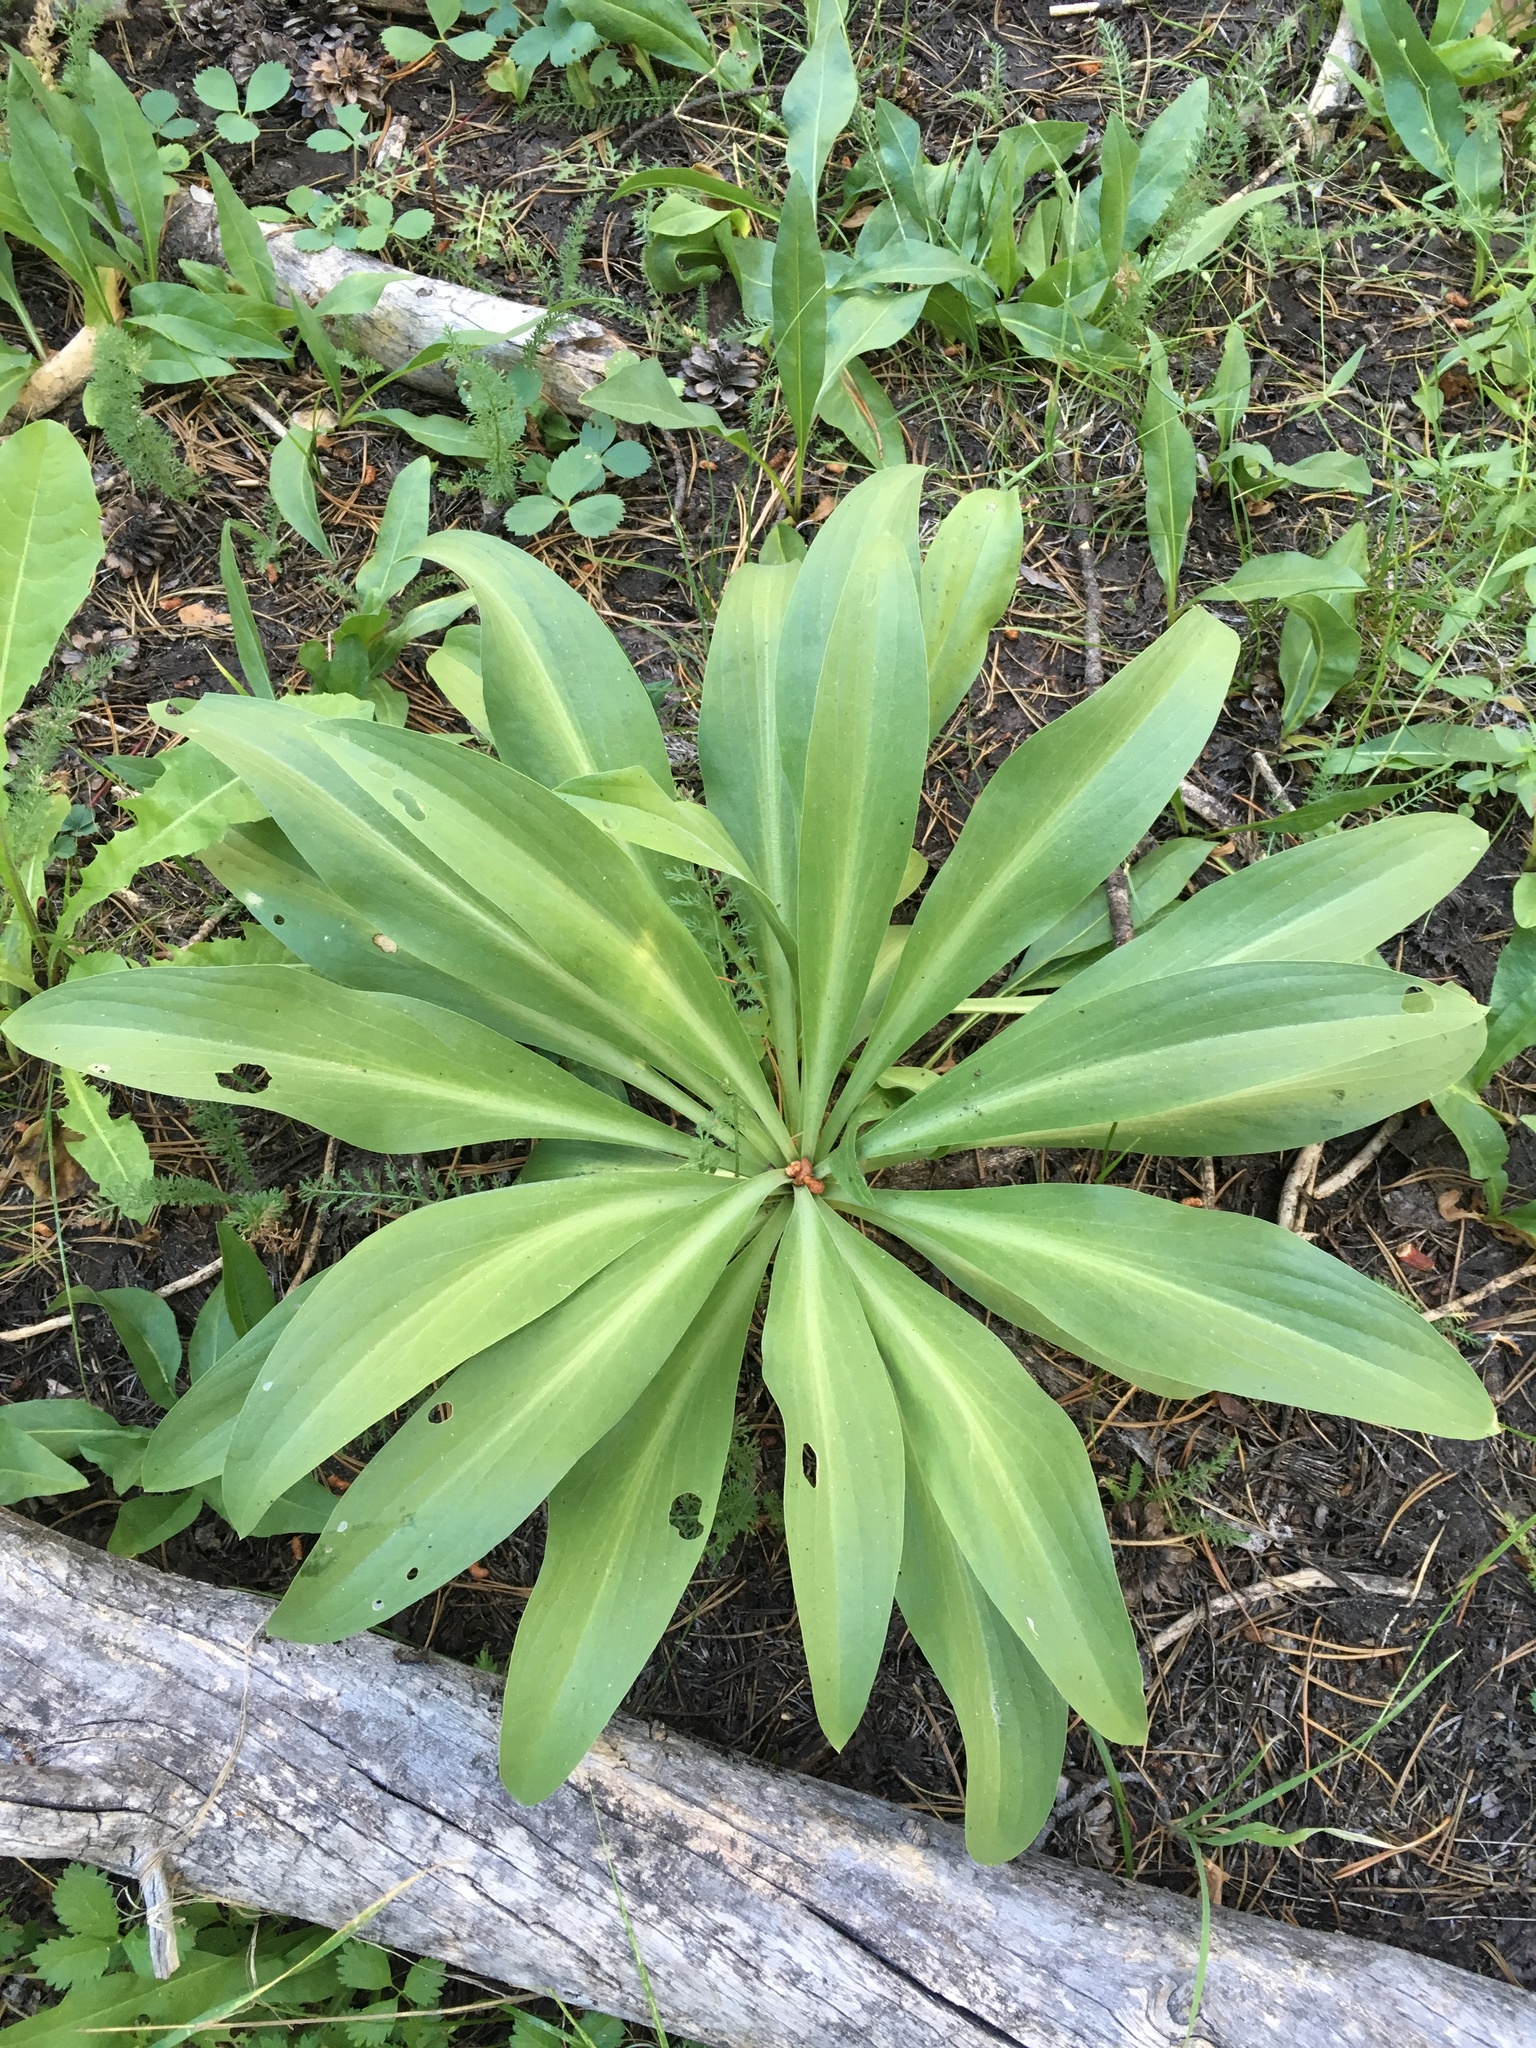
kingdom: Plantae
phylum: Tracheophyta
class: Magnoliopsida
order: Gentianales
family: Gentianaceae
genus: Frasera
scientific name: Frasera speciosa
